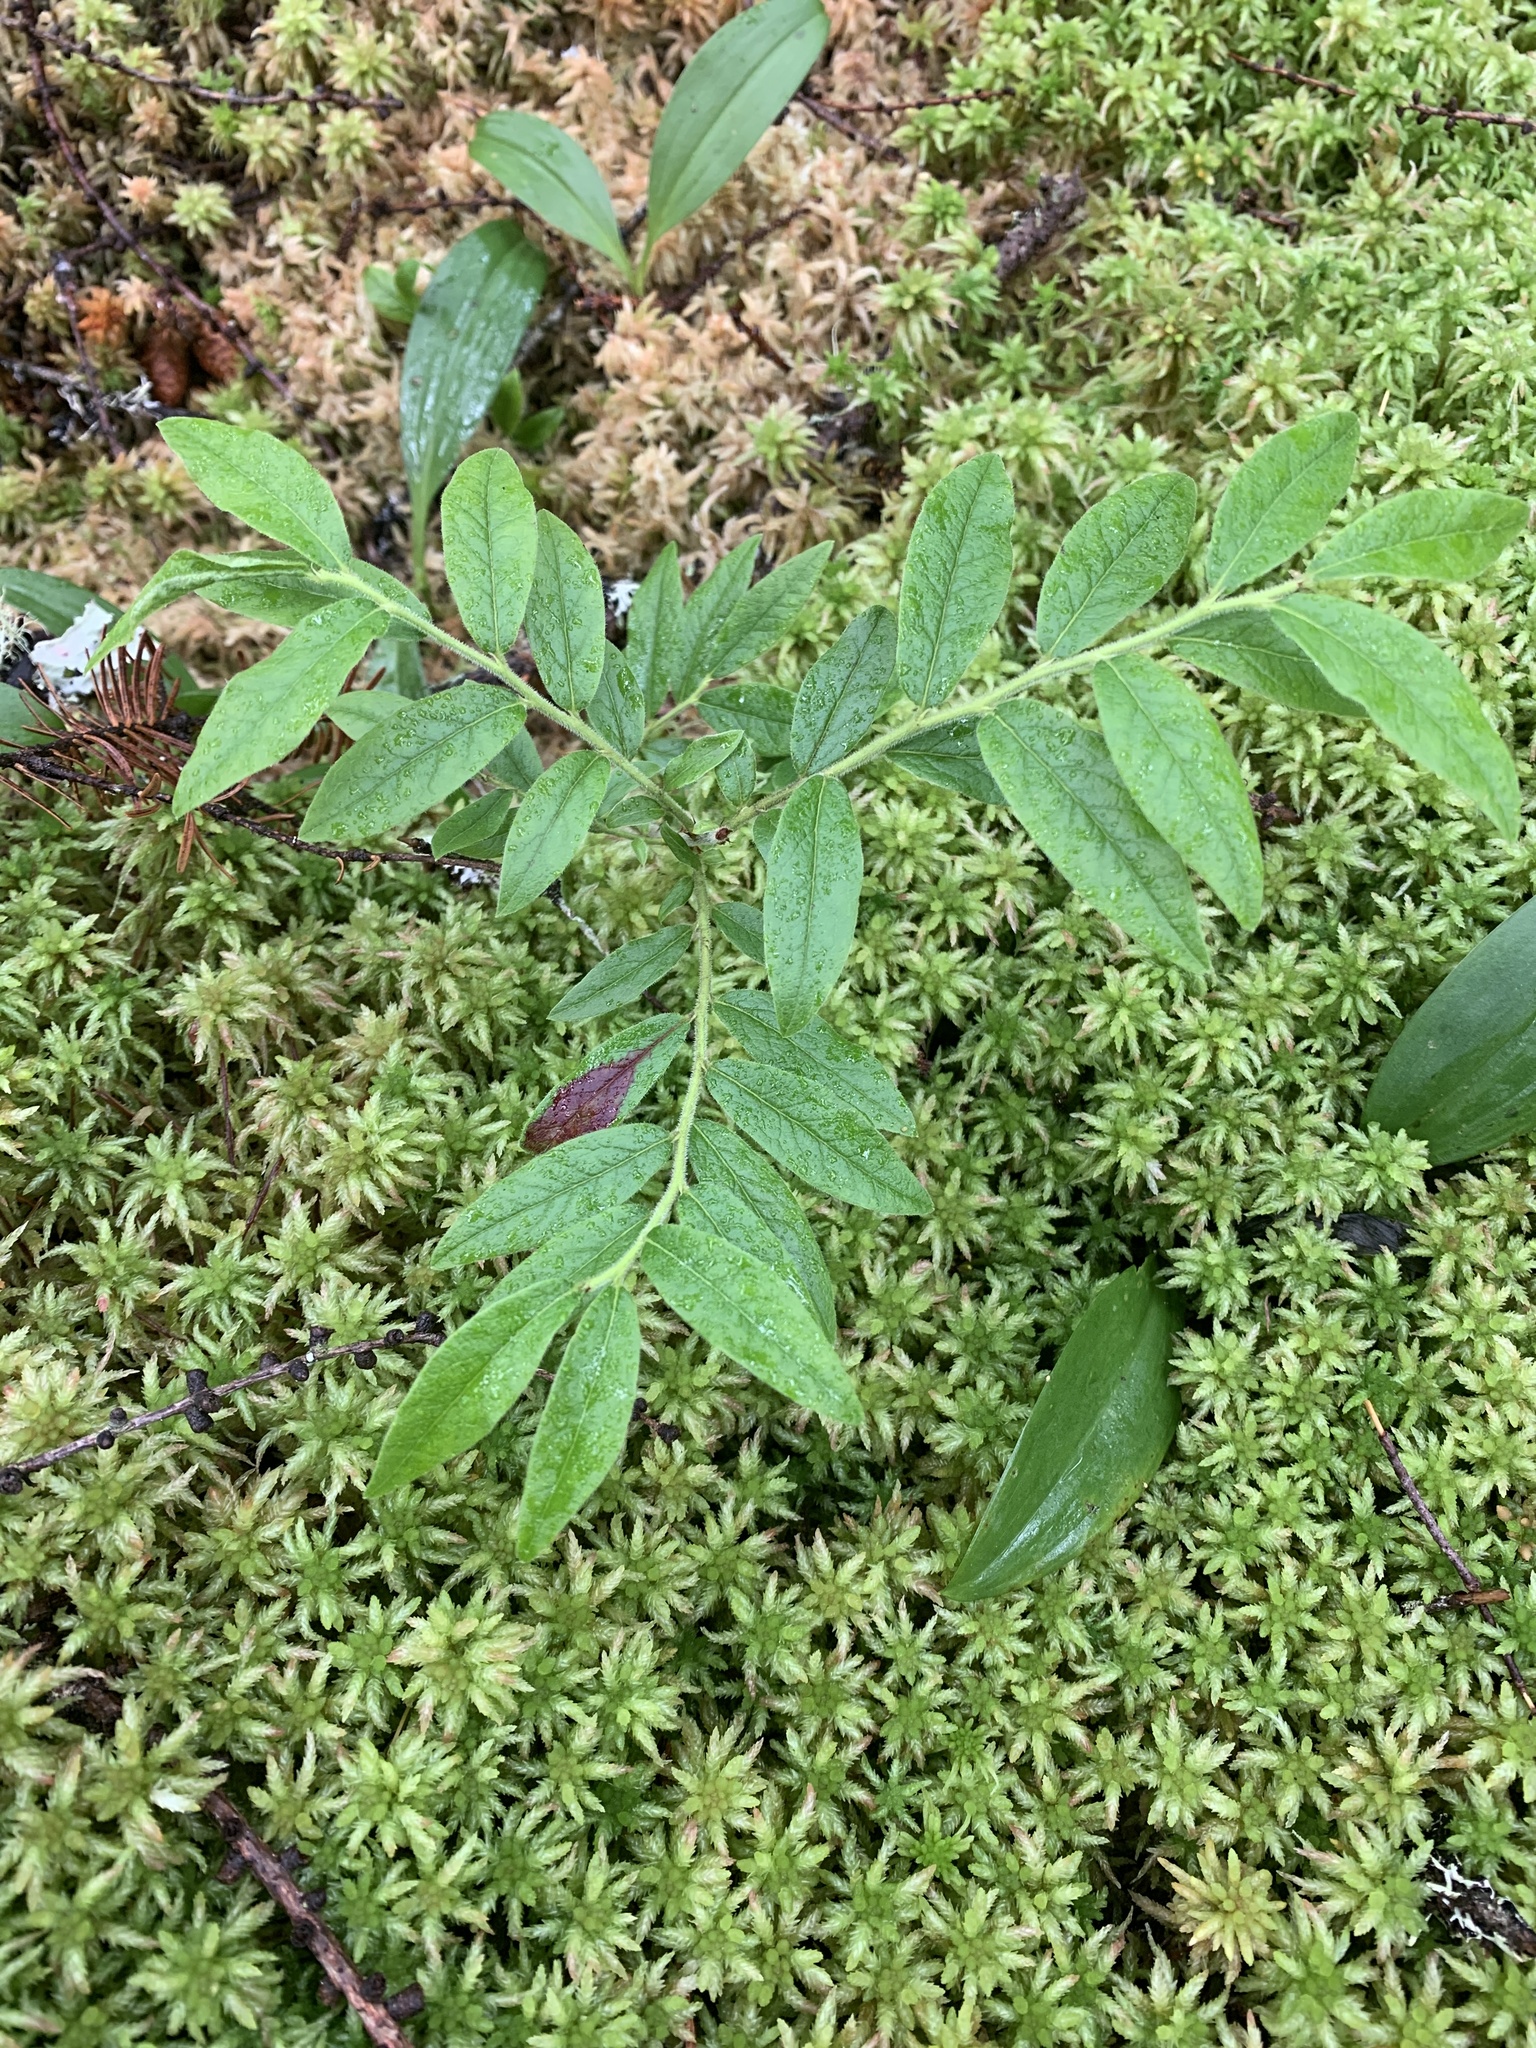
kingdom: Plantae
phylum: Tracheophyta
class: Magnoliopsida
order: Ericales
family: Ericaceae
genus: Vaccinium
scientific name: Vaccinium myrtilloides
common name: Canada blueberry
